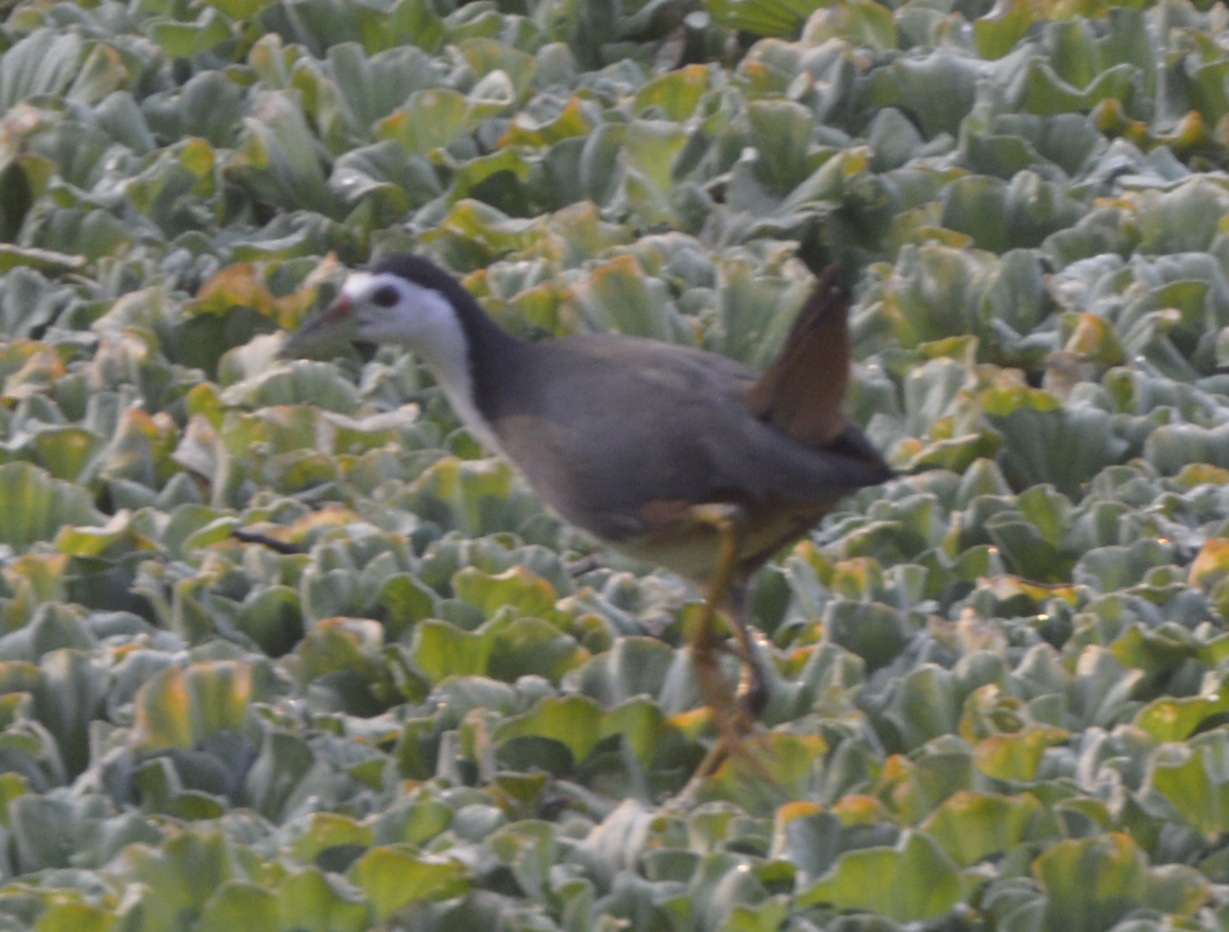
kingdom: Animalia
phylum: Chordata
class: Aves
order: Gruiformes
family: Rallidae
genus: Amaurornis
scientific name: Amaurornis phoenicurus
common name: White-breasted waterhen
